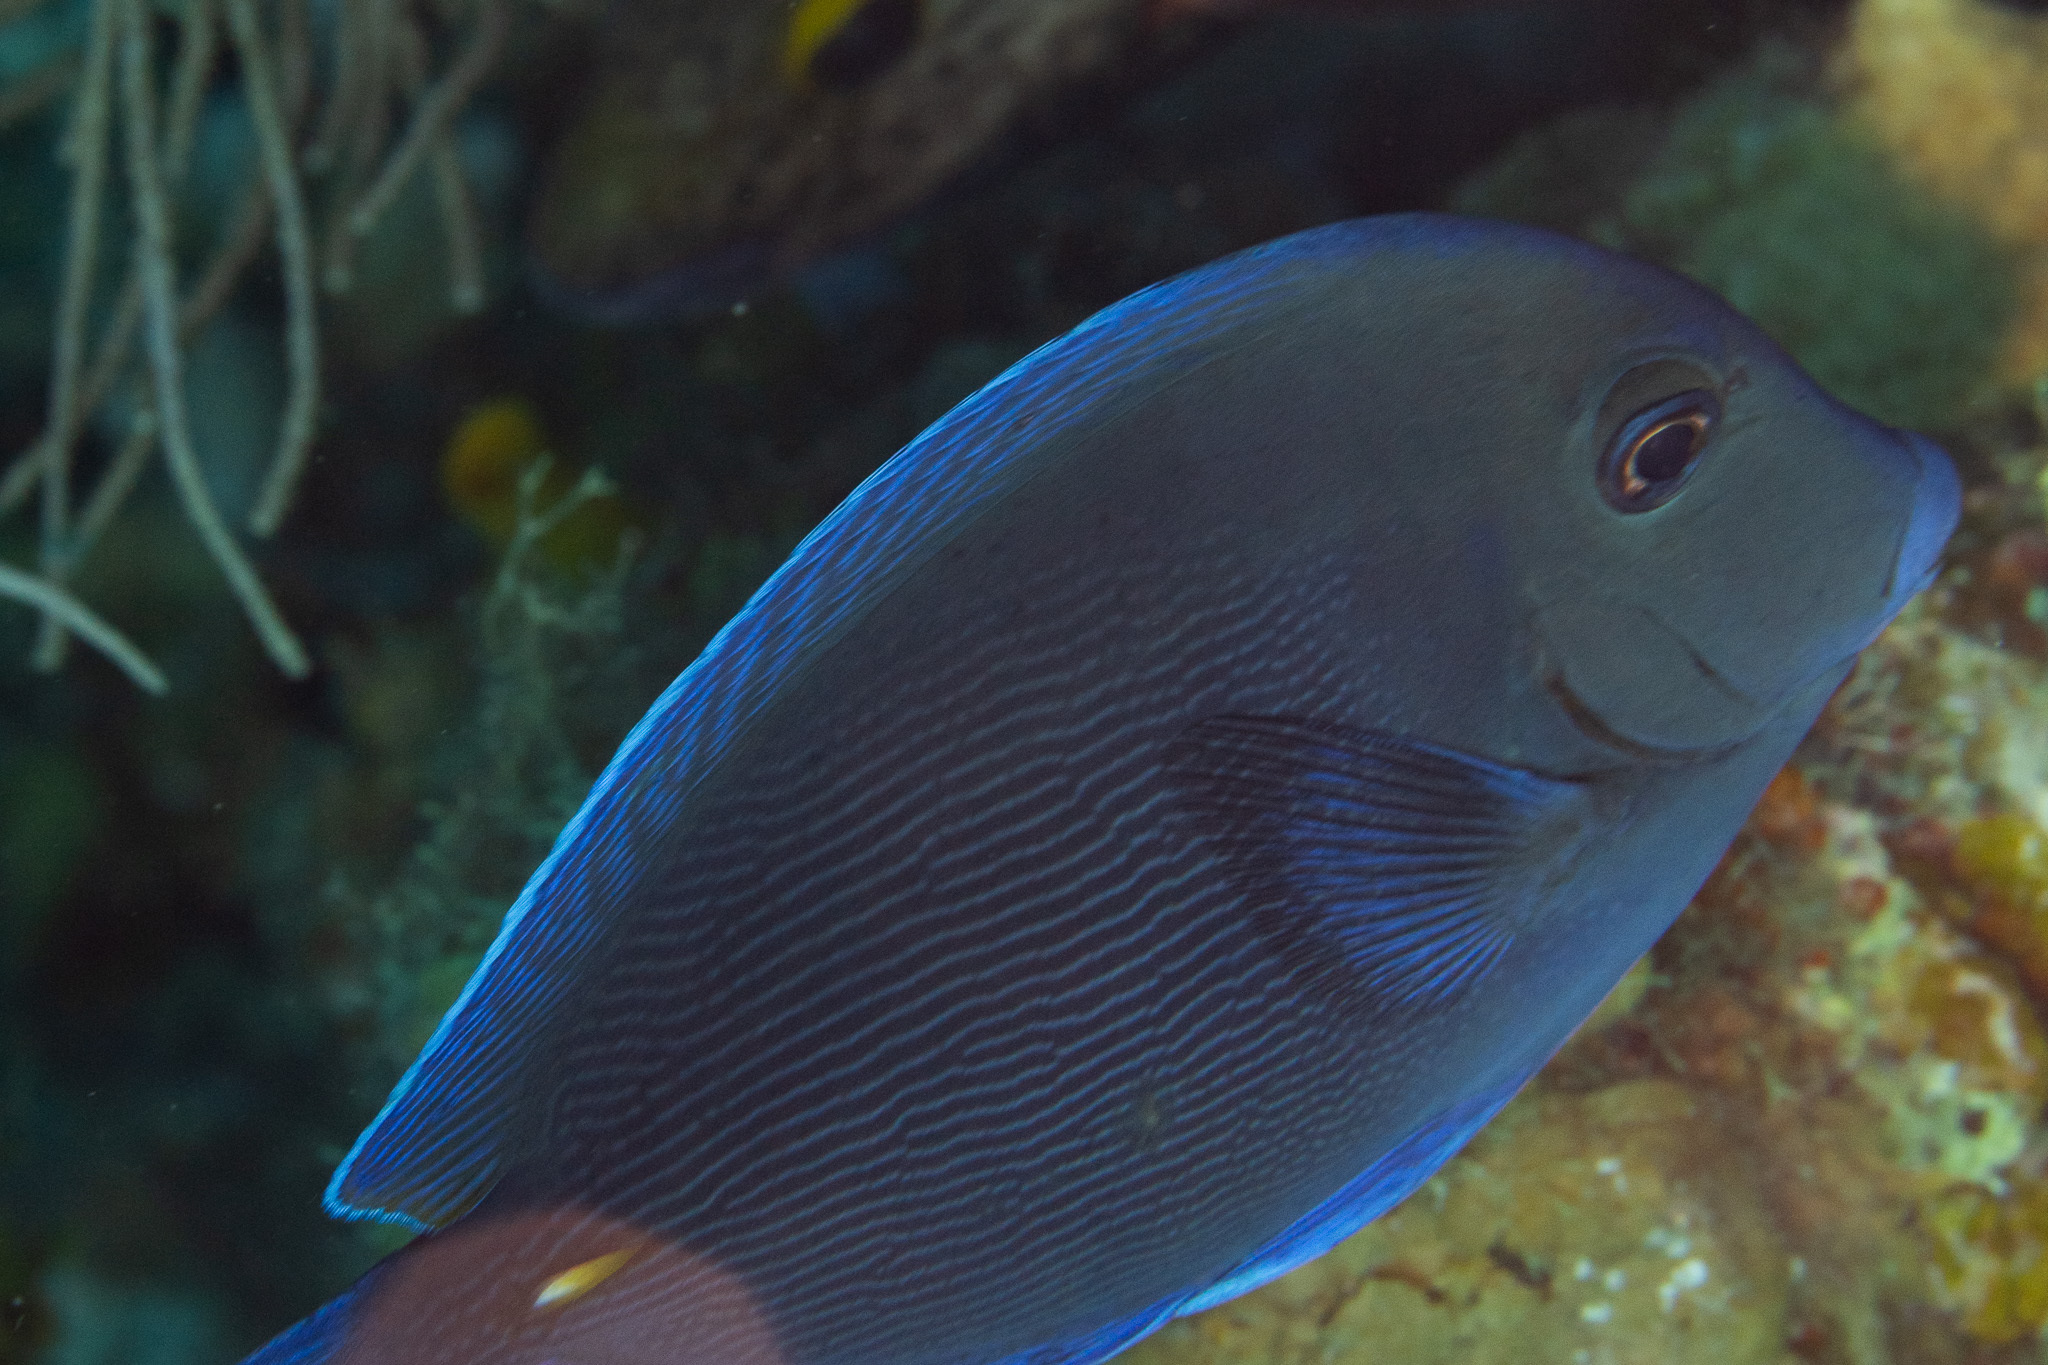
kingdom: Animalia
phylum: Chordata
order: Perciformes
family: Acanthuridae
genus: Acanthurus
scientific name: Acanthurus coeruleus
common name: Blue tang
